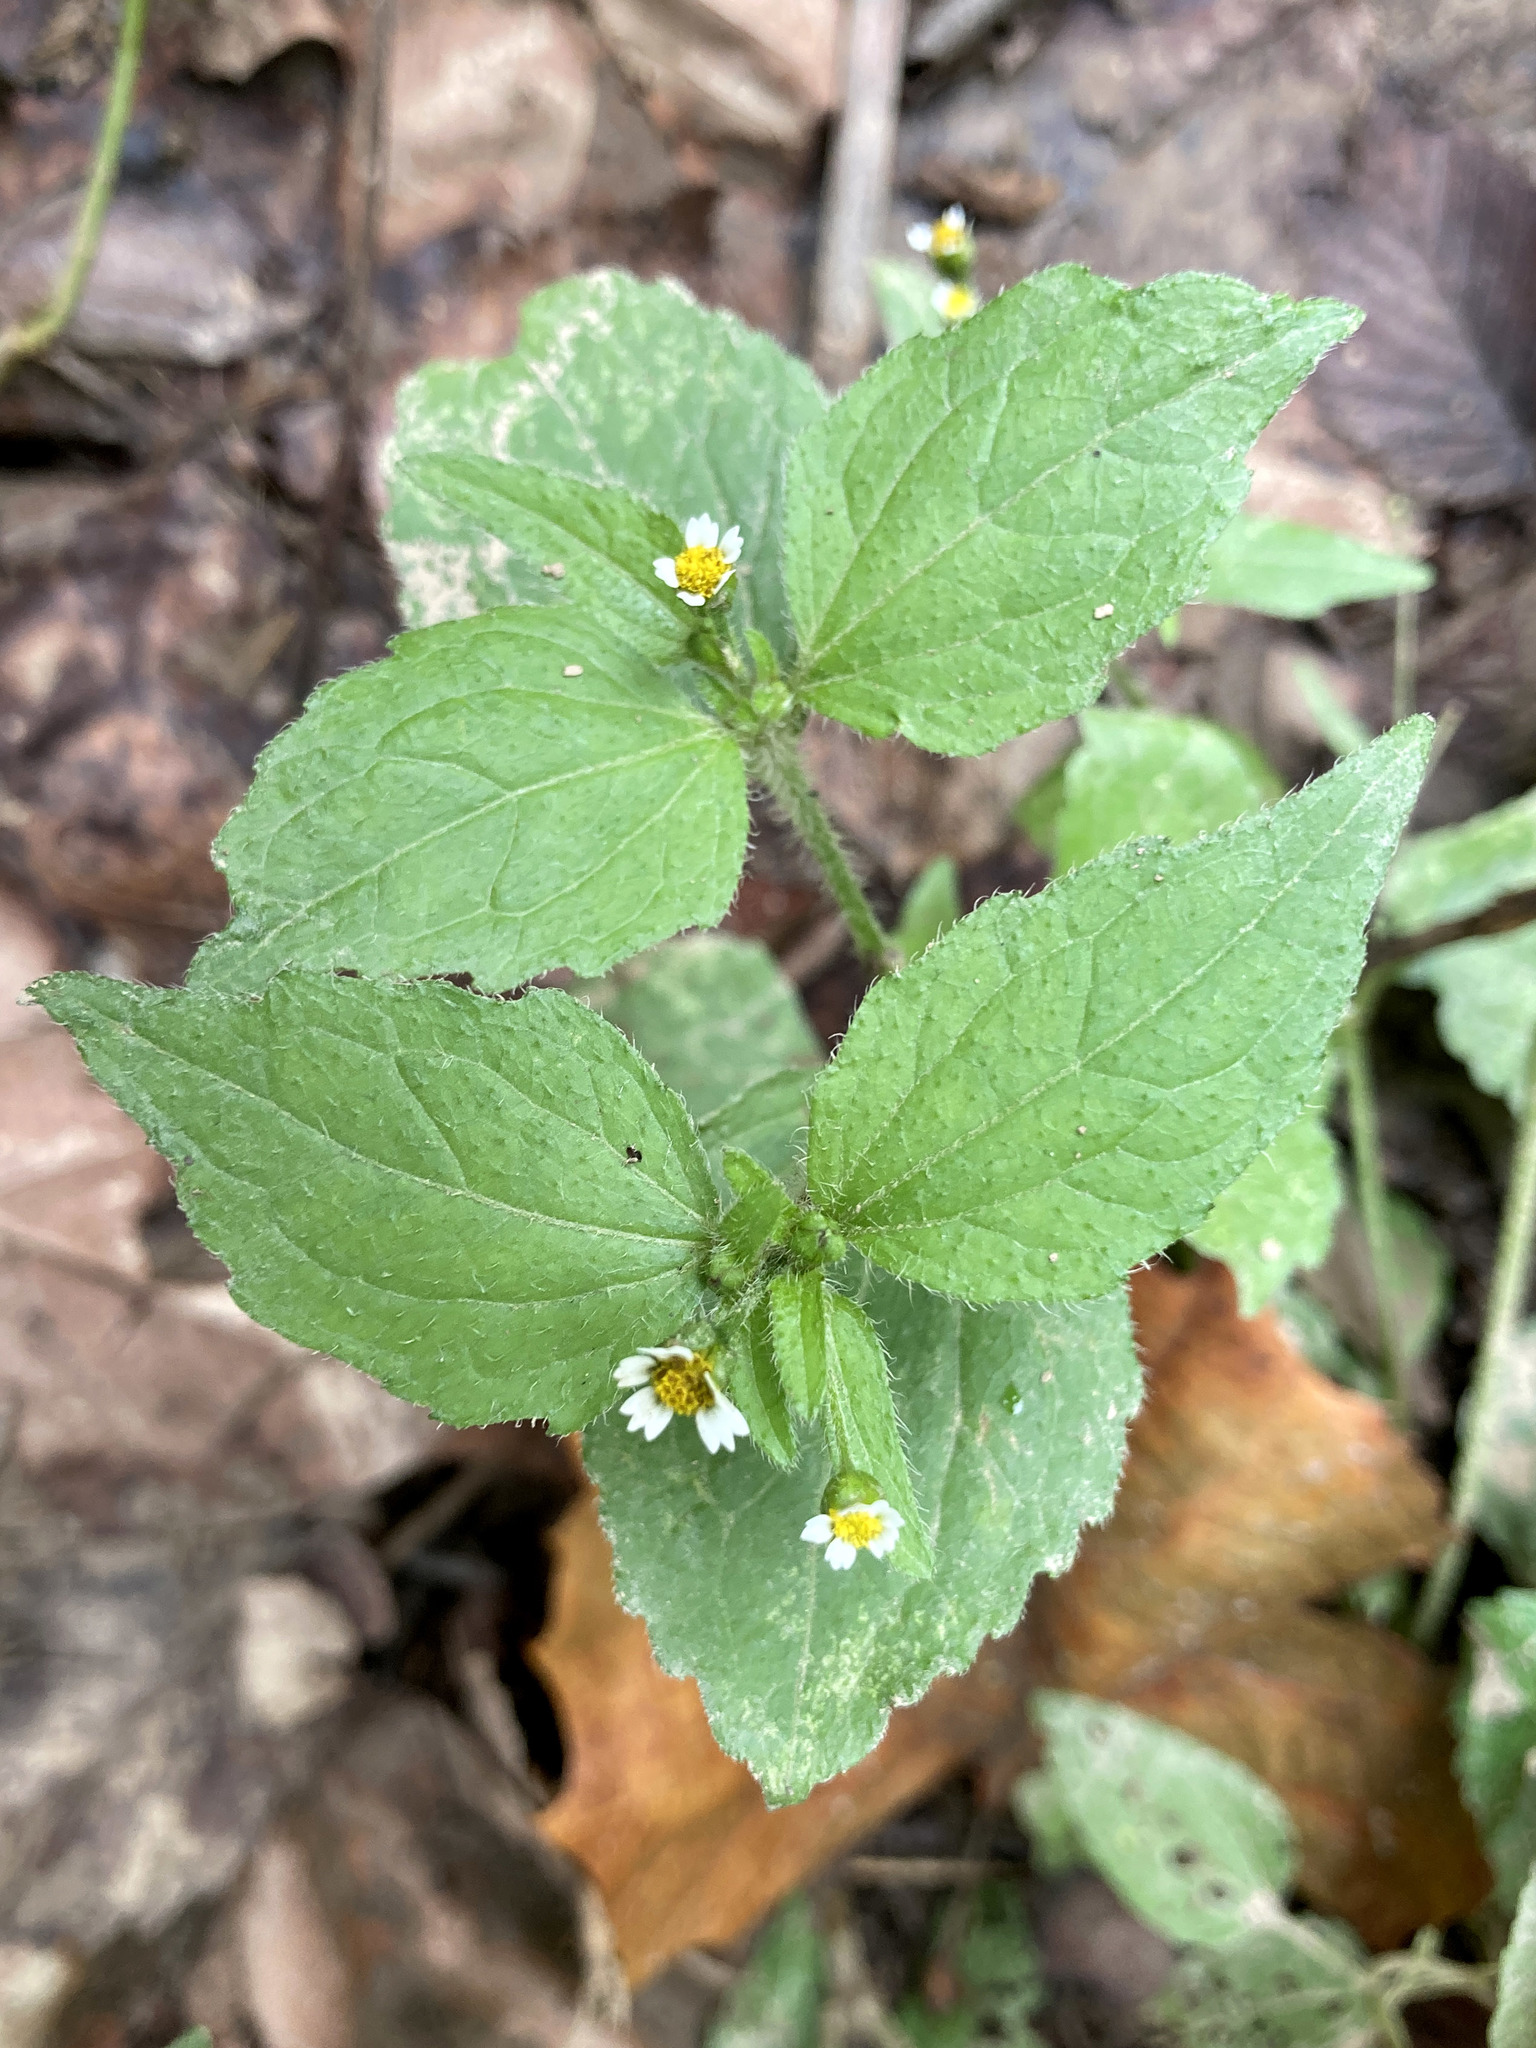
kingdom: Plantae
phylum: Tracheophyta
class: Magnoliopsida
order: Asterales
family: Asteraceae
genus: Galinsoga
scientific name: Galinsoga quadriradiata
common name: Shaggy soldier
